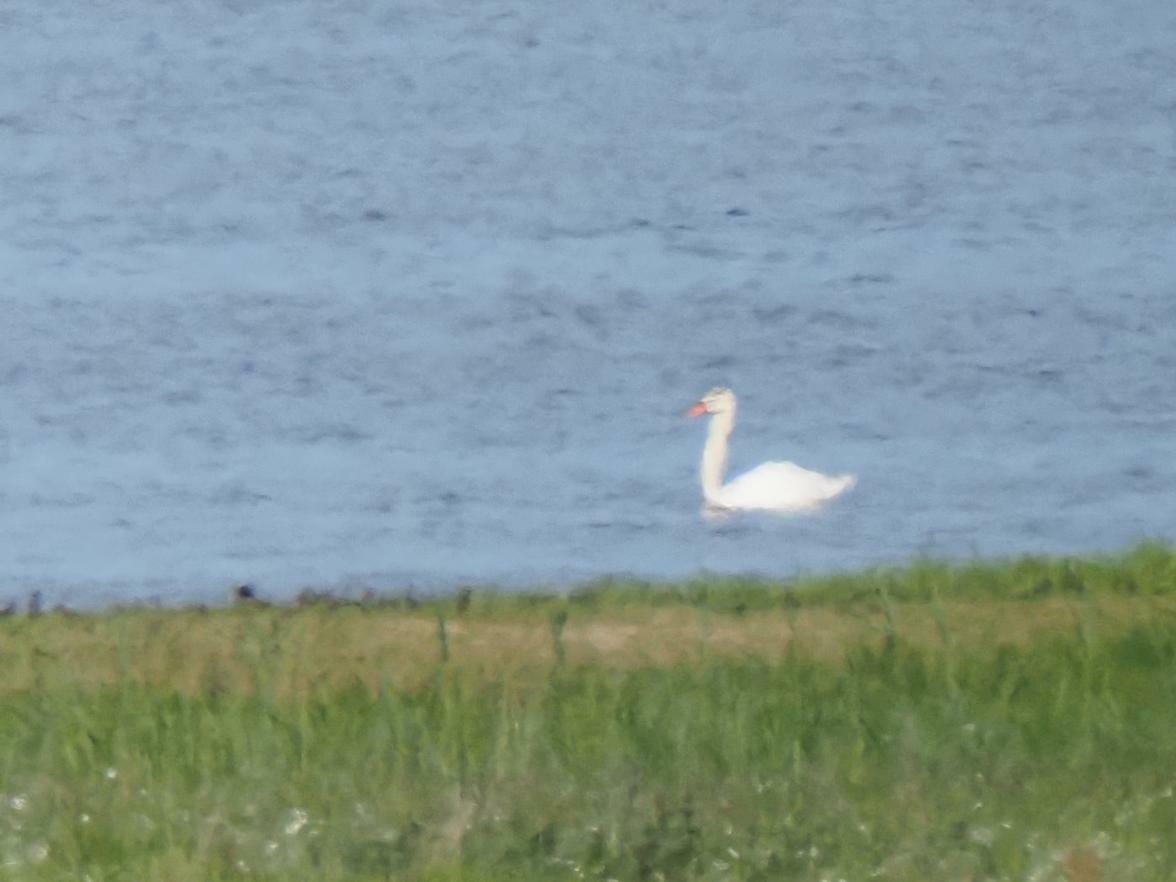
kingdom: Animalia
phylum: Chordata
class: Aves
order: Anseriformes
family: Anatidae
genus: Cygnus
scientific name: Cygnus olor
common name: Mute swan
